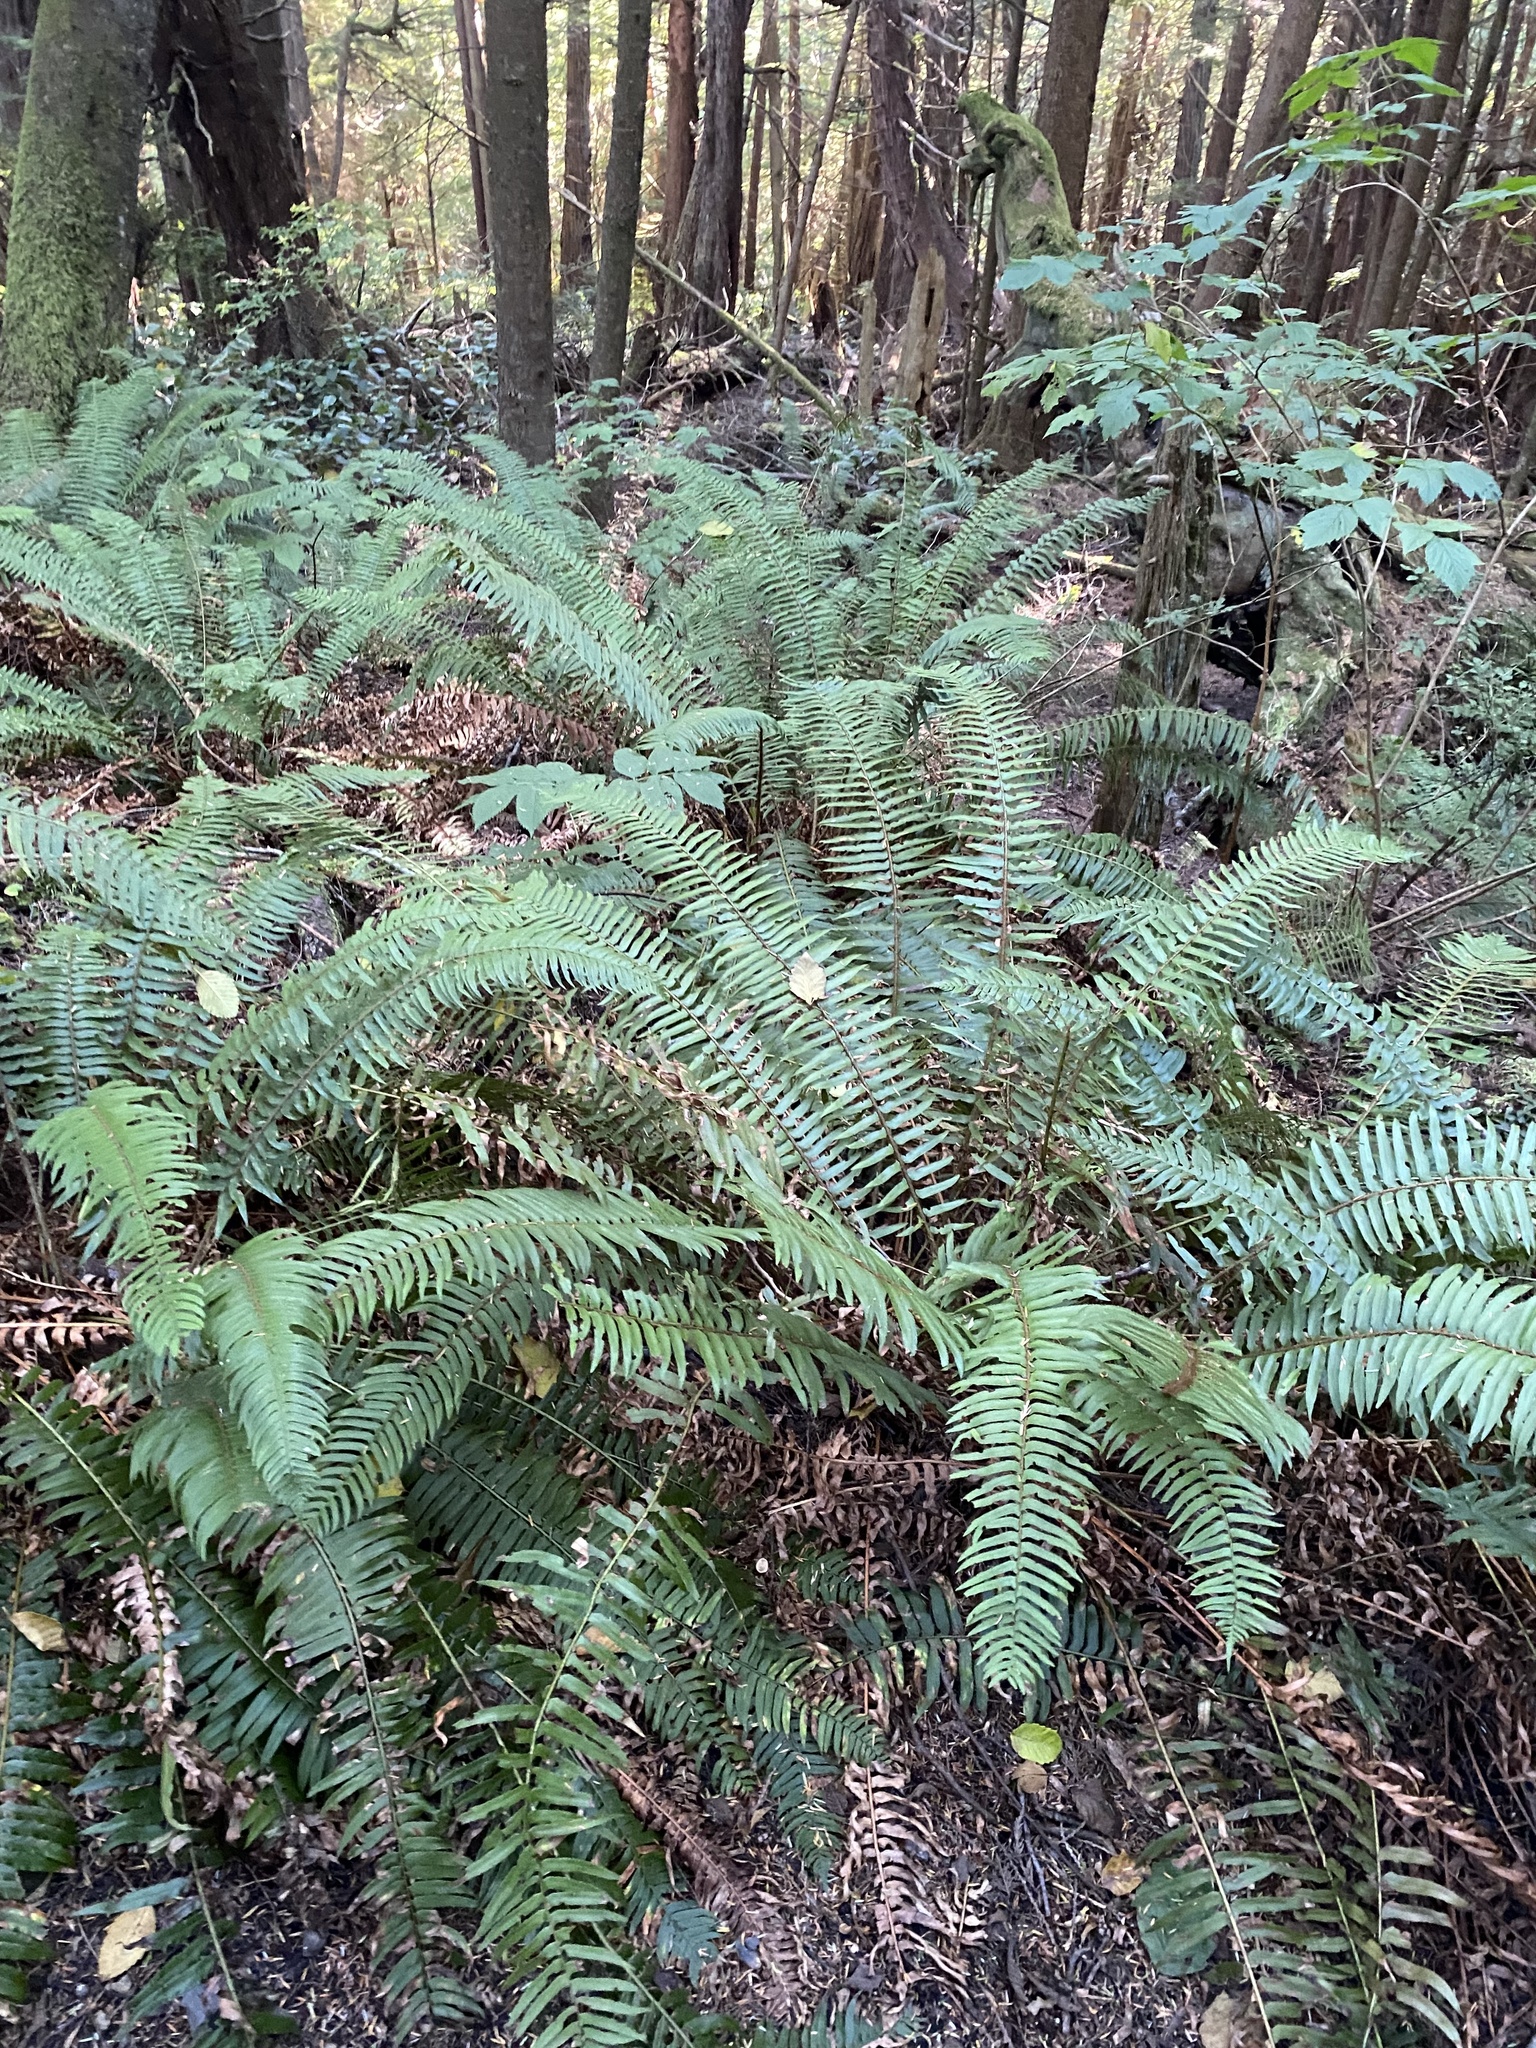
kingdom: Plantae
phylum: Tracheophyta
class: Polypodiopsida
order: Polypodiales
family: Dryopteridaceae
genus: Polystichum
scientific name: Polystichum munitum
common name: Western sword-fern
